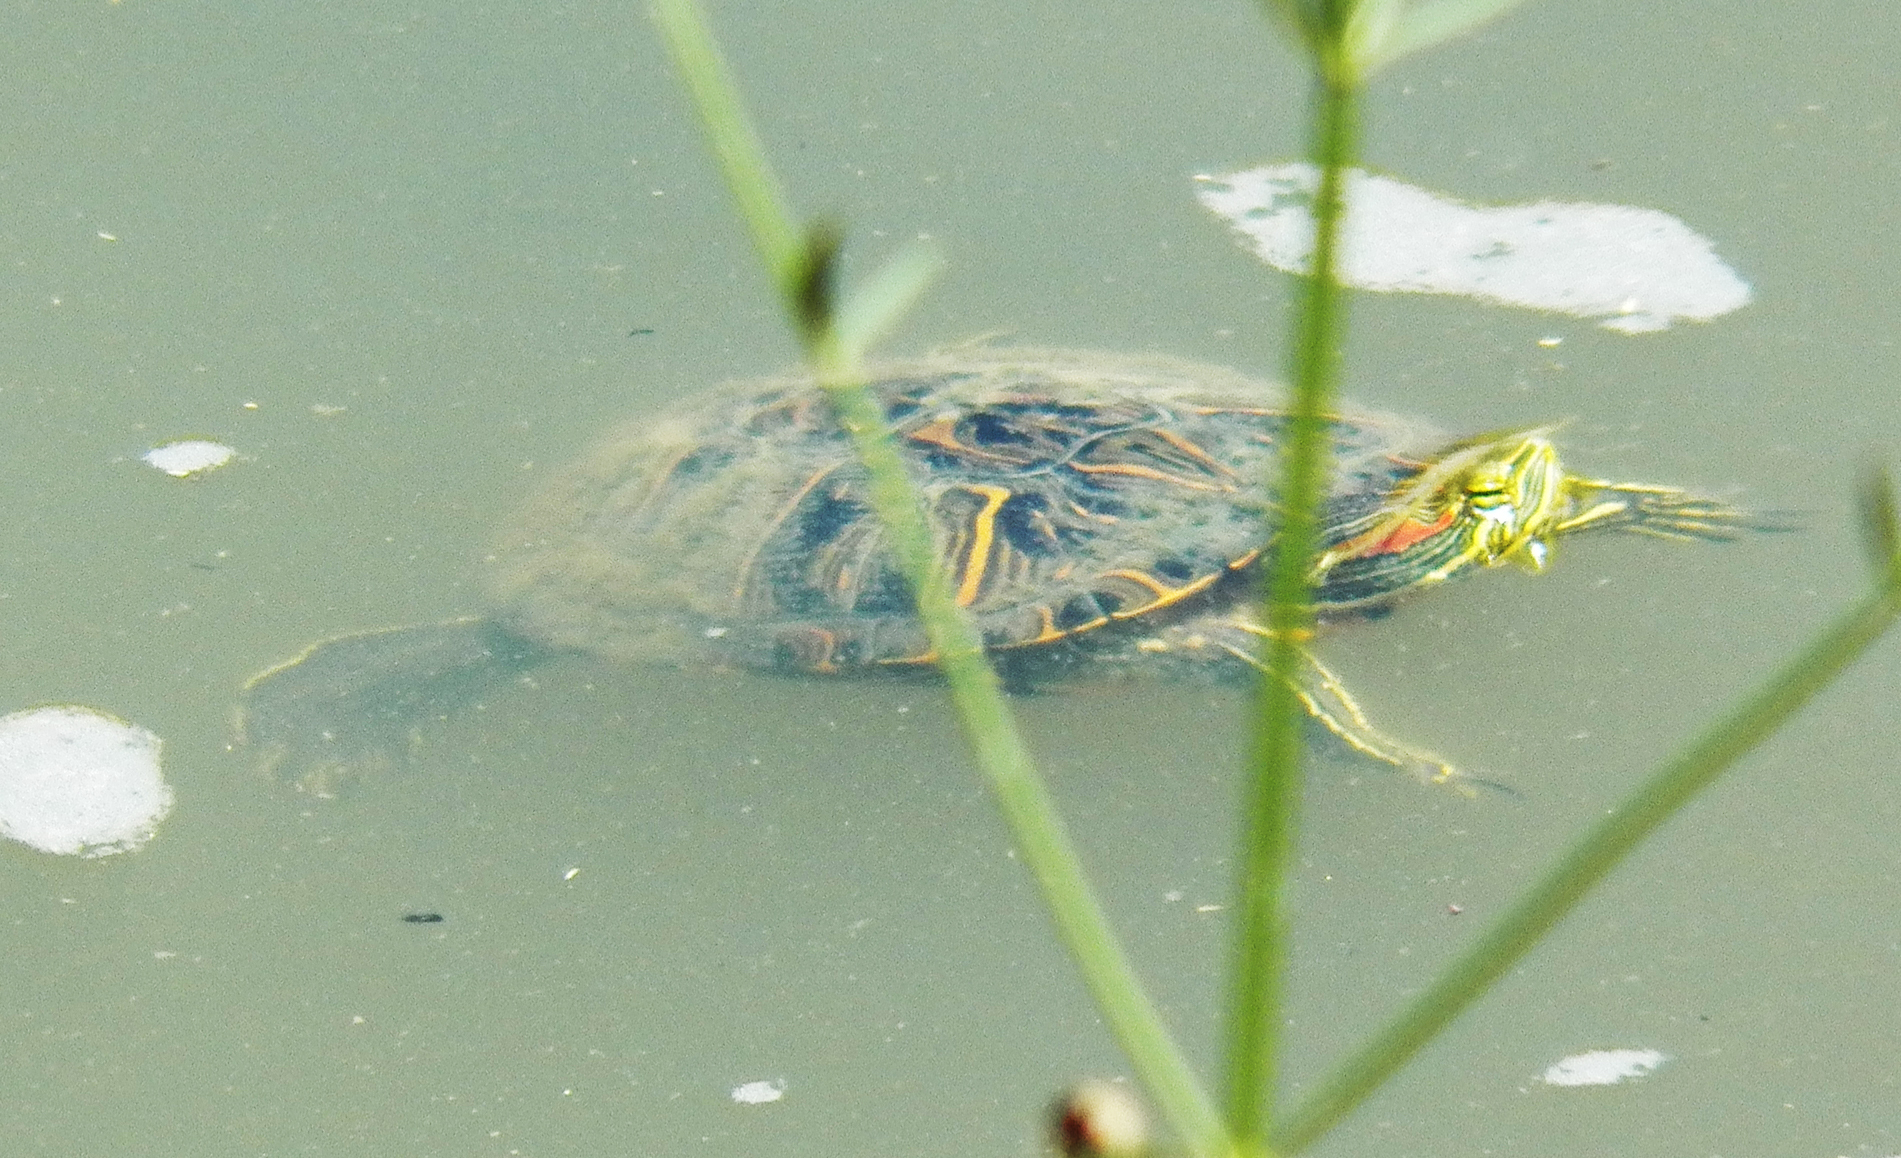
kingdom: Animalia
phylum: Chordata
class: Testudines
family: Emydidae
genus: Trachemys
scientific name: Trachemys scripta
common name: Slider
